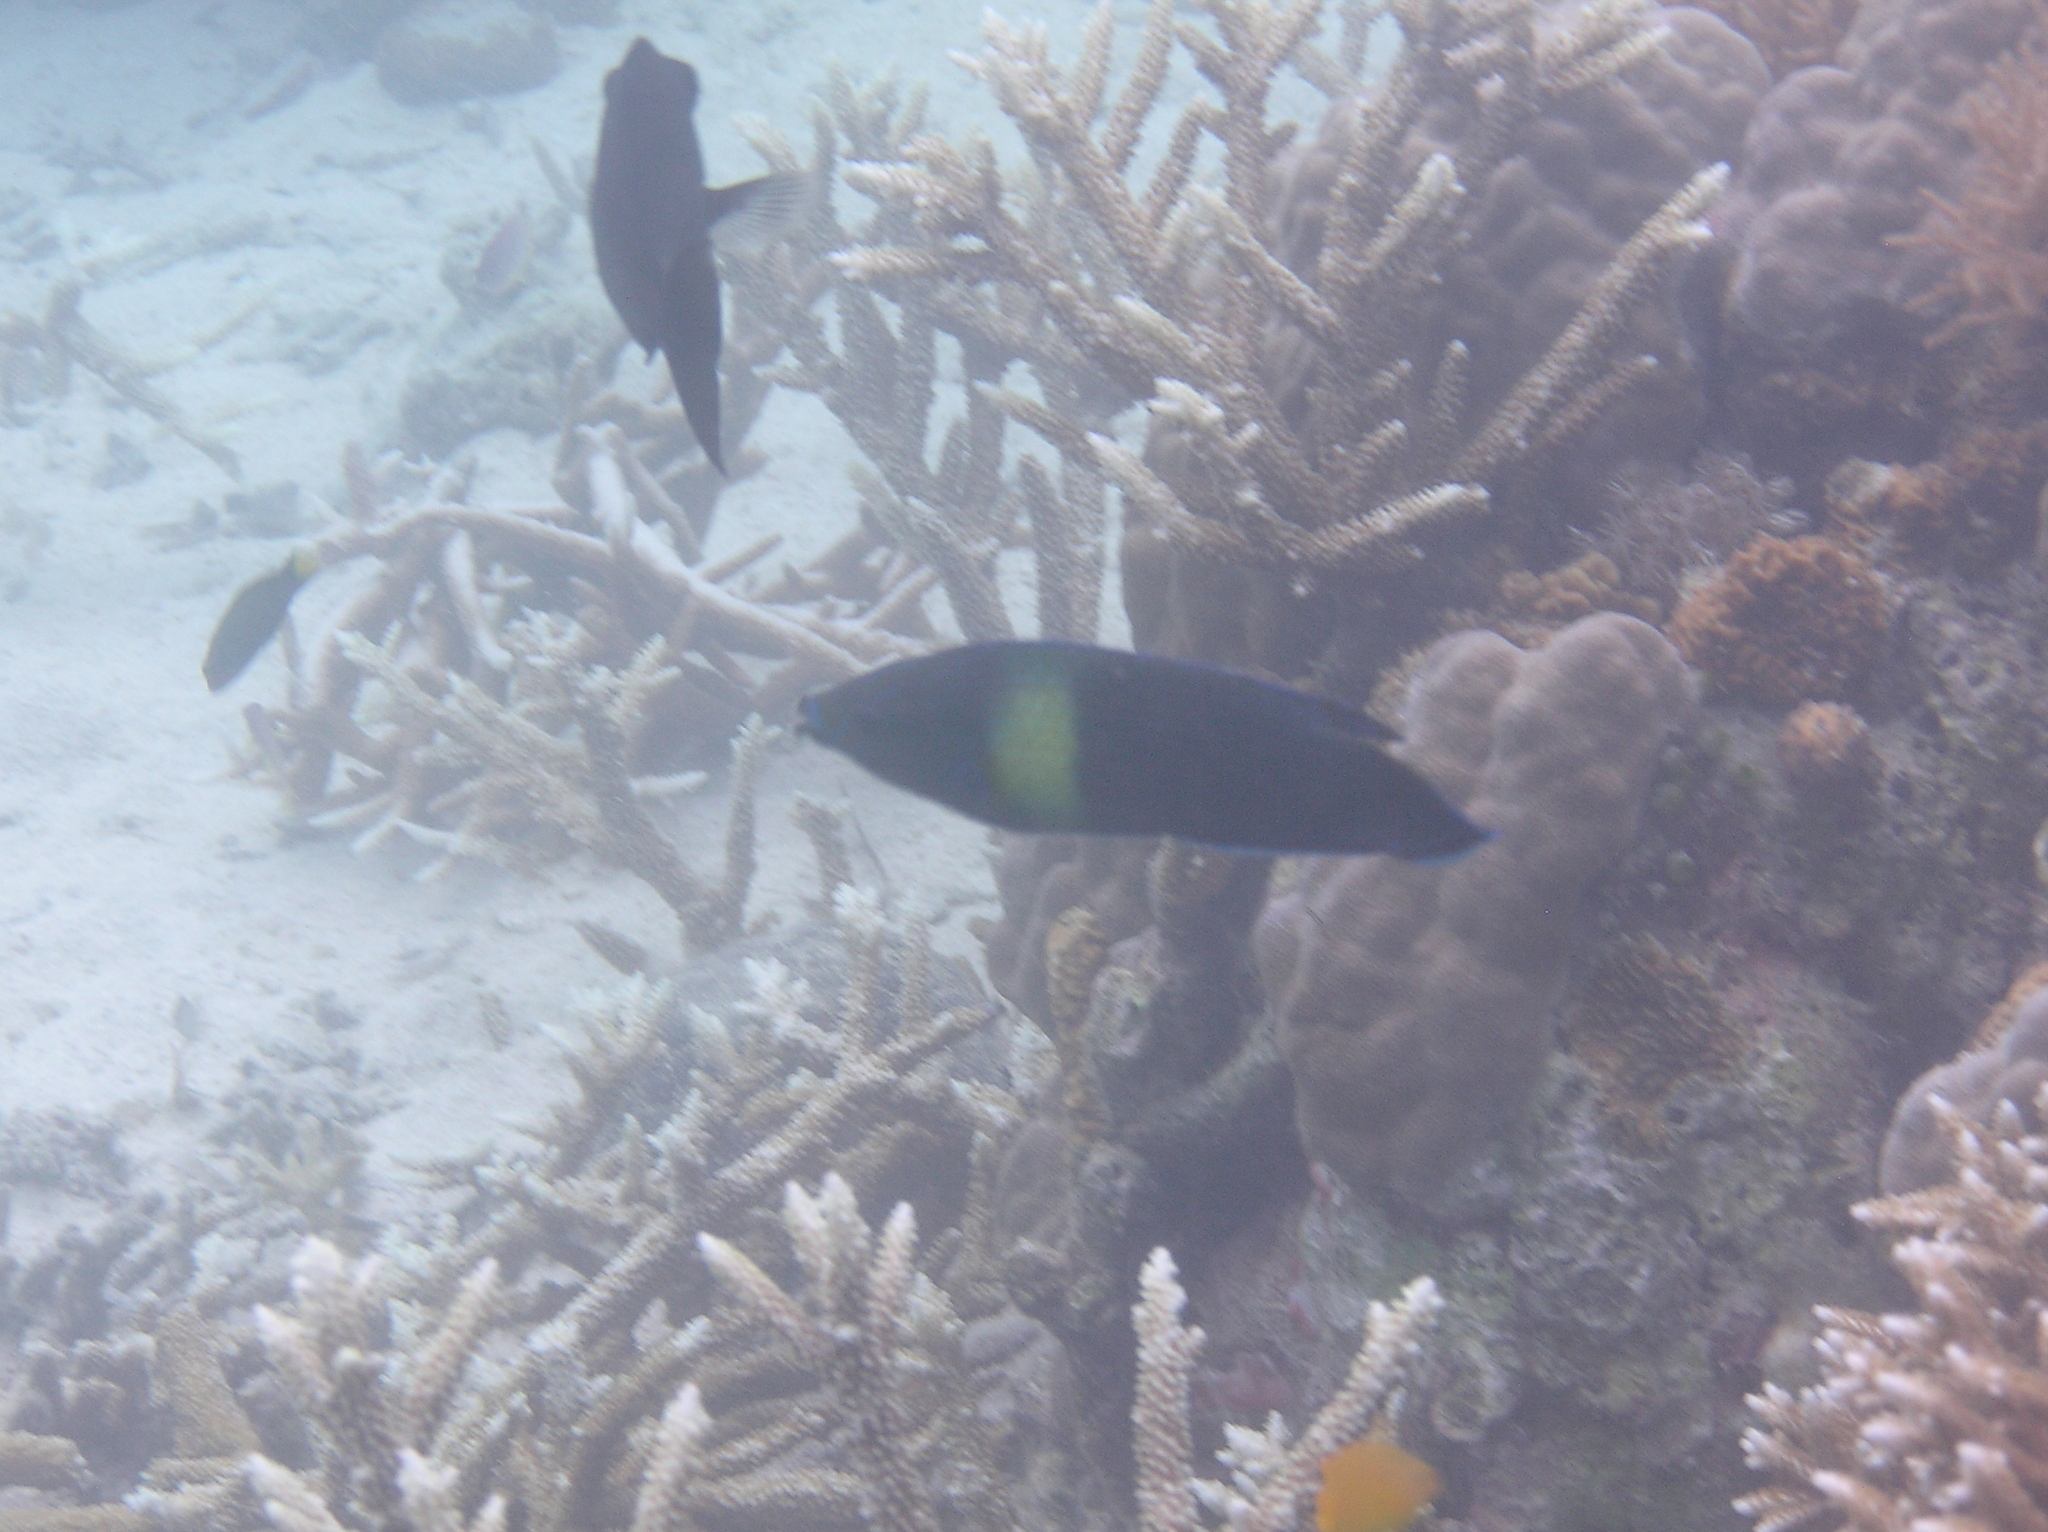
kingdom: Animalia
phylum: Chordata
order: Perciformes
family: Labridae
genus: Labrichthys
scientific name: Labrichthys unilineatus
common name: Onelined wrasse
